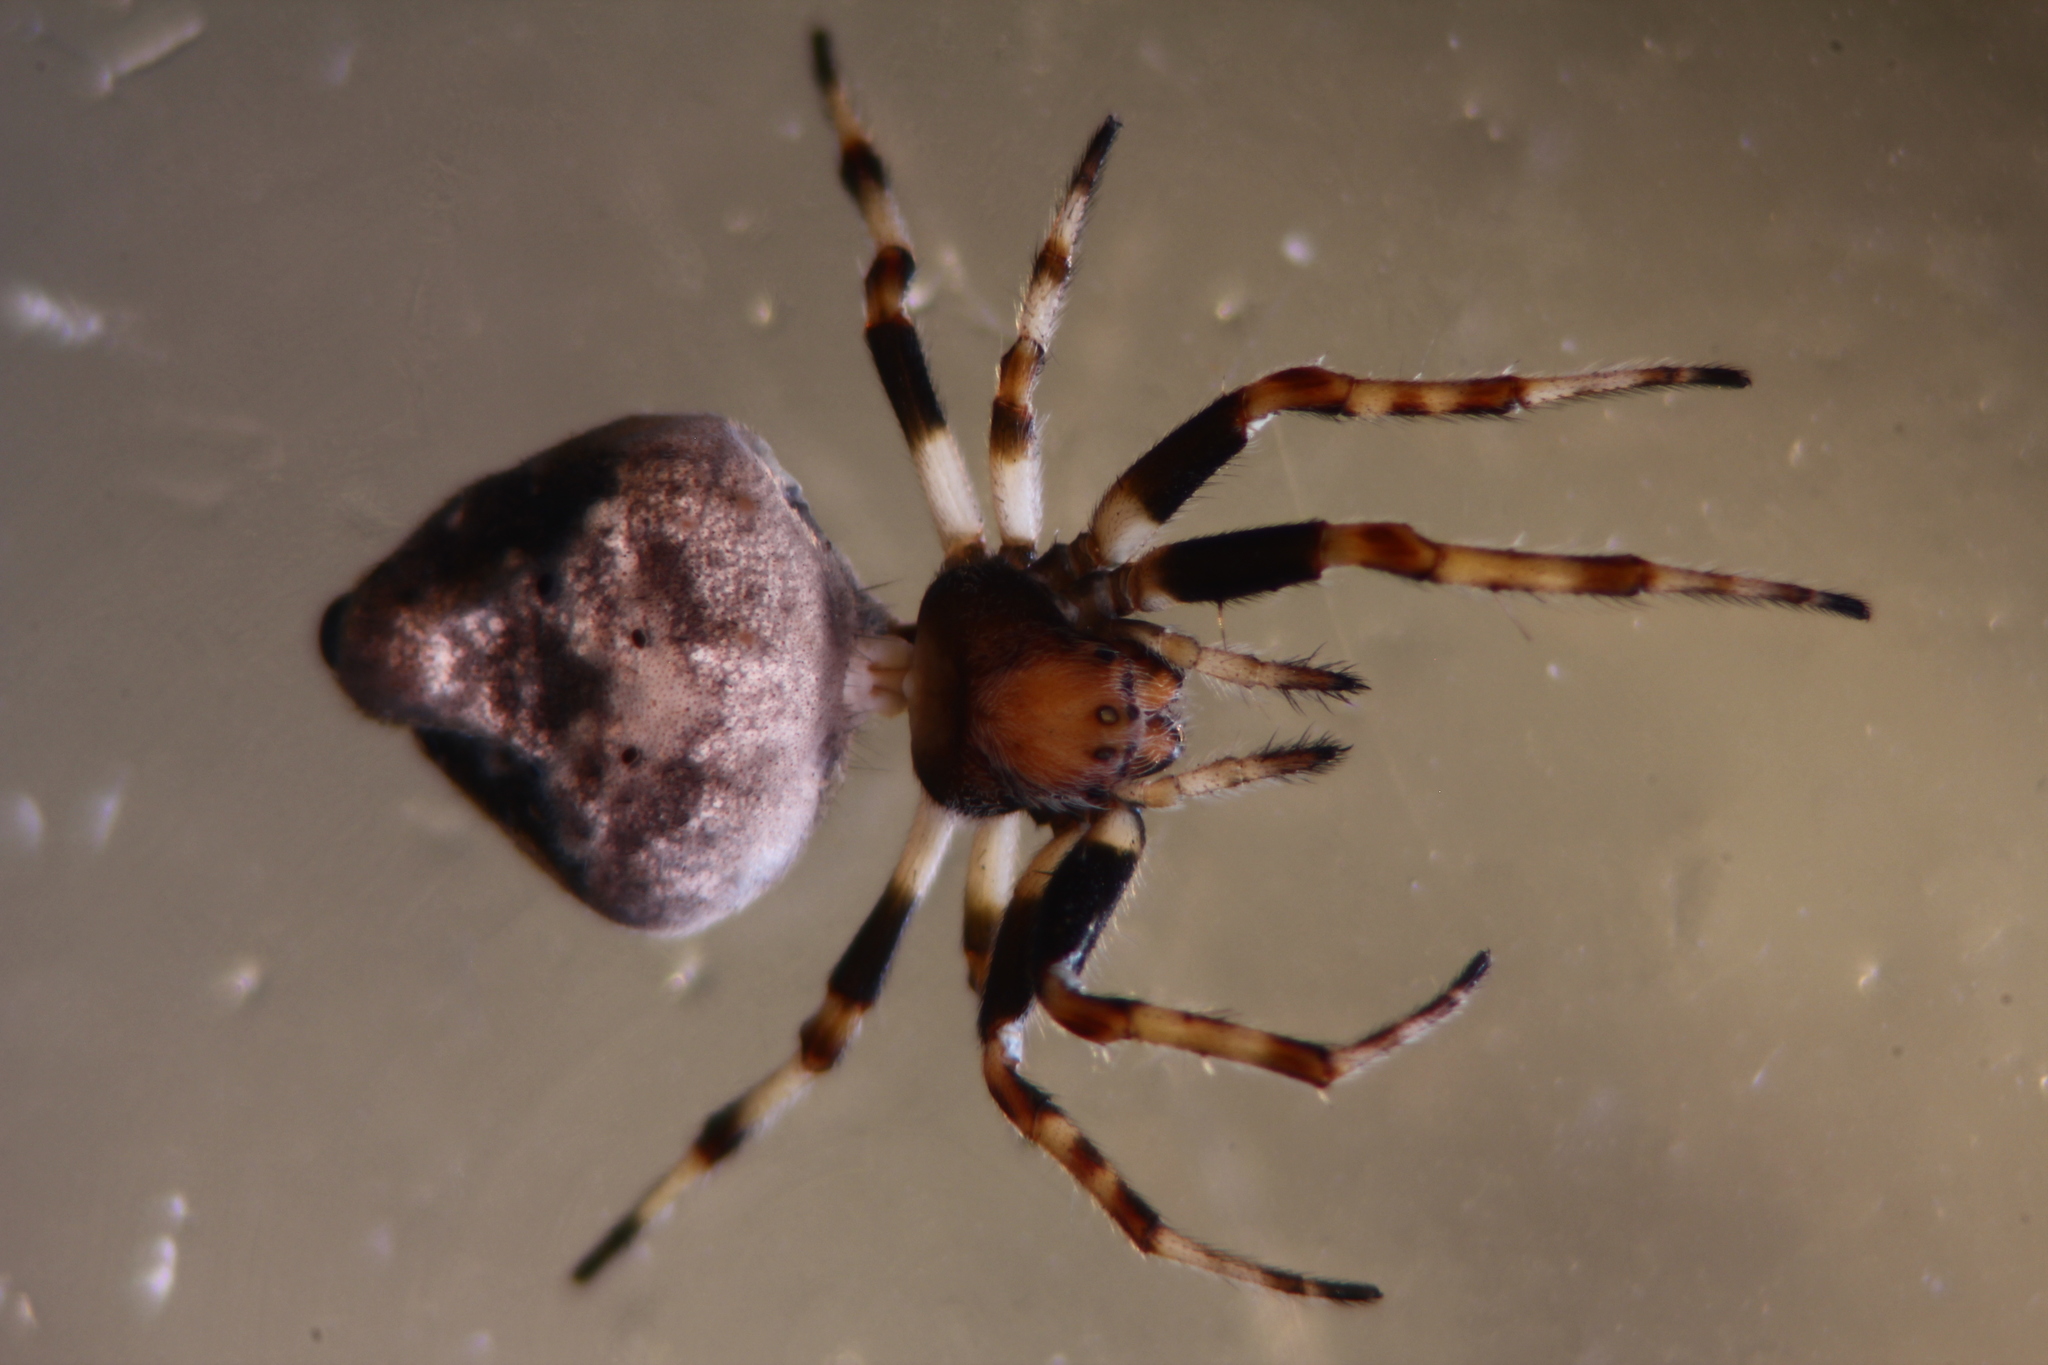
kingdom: Animalia
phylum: Arthropoda
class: Arachnida
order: Araneae
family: Araneidae
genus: Eriovixia
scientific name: Eriovixia excelsa
